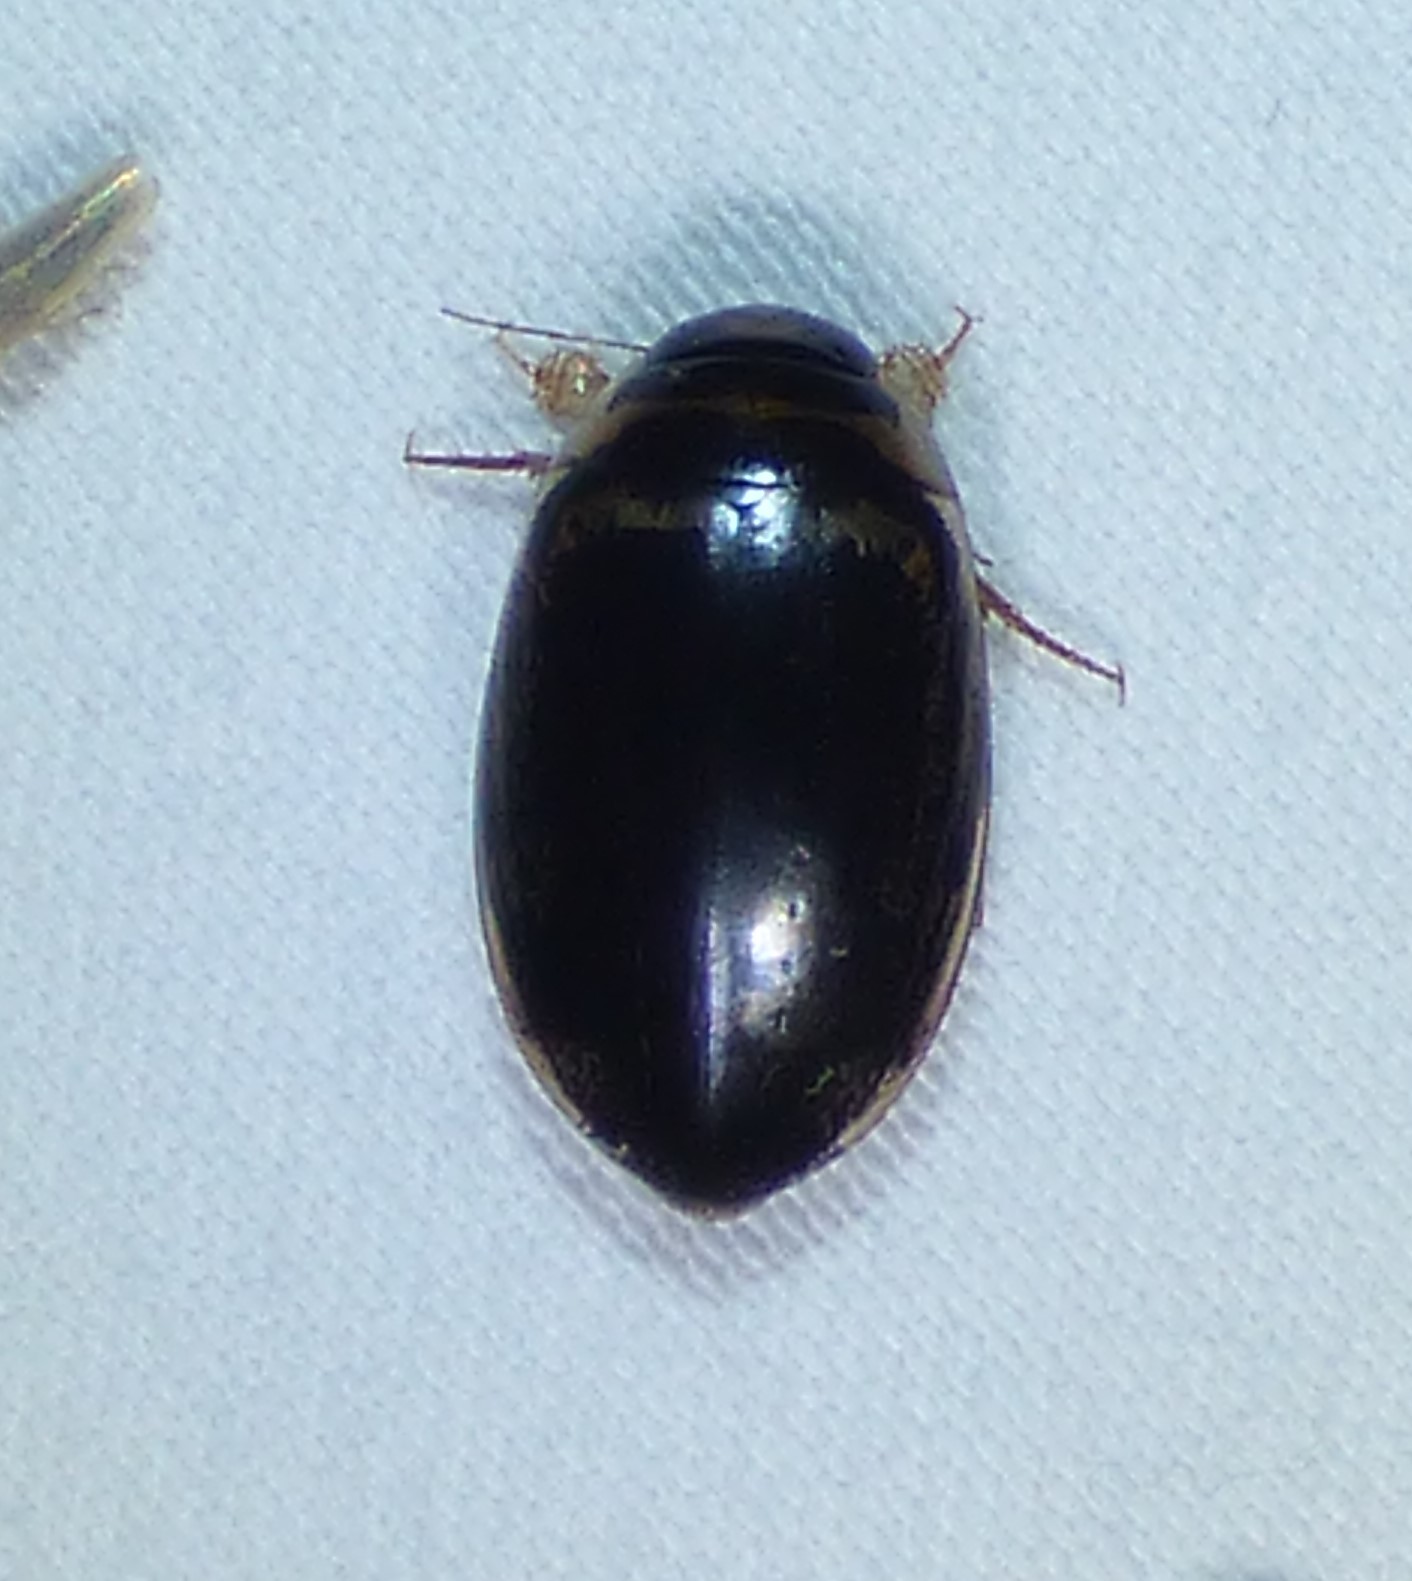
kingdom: Animalia
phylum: Arthropoda
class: Insecta
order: Coleoptera
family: Dytiscidae
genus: Thermonectus
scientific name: Thermonectus basillaris
